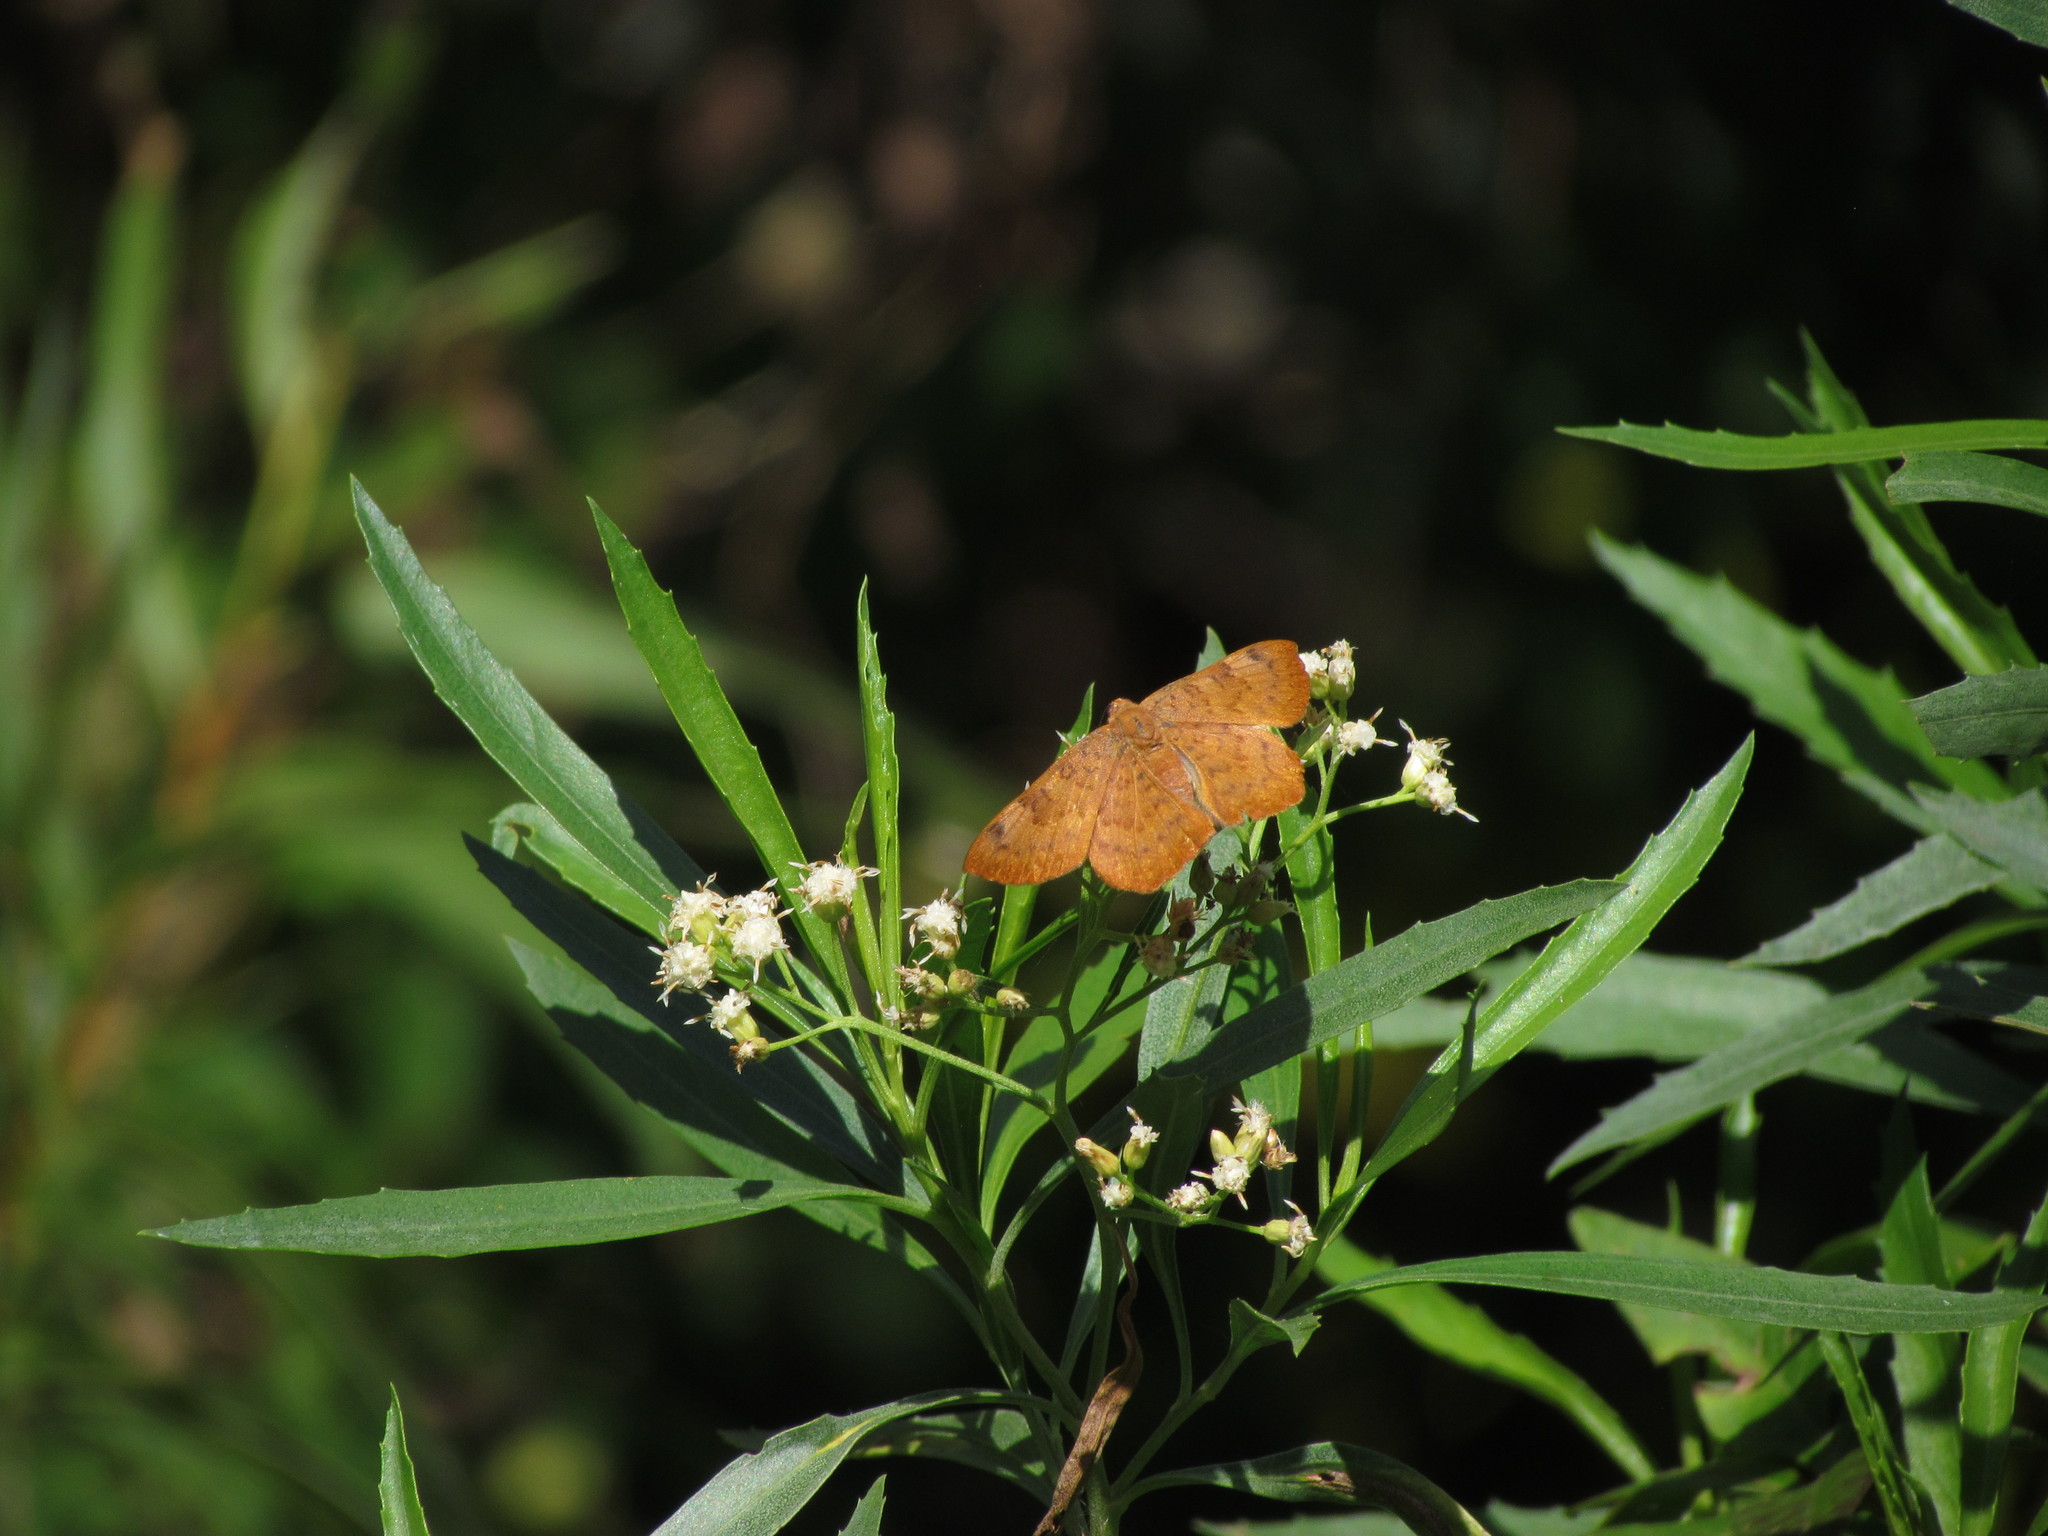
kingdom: Animalia
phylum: Arthropoda
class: Insecta
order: Lepidoptera
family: Lycaenidae
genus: Emesis
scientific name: Emesis russula
